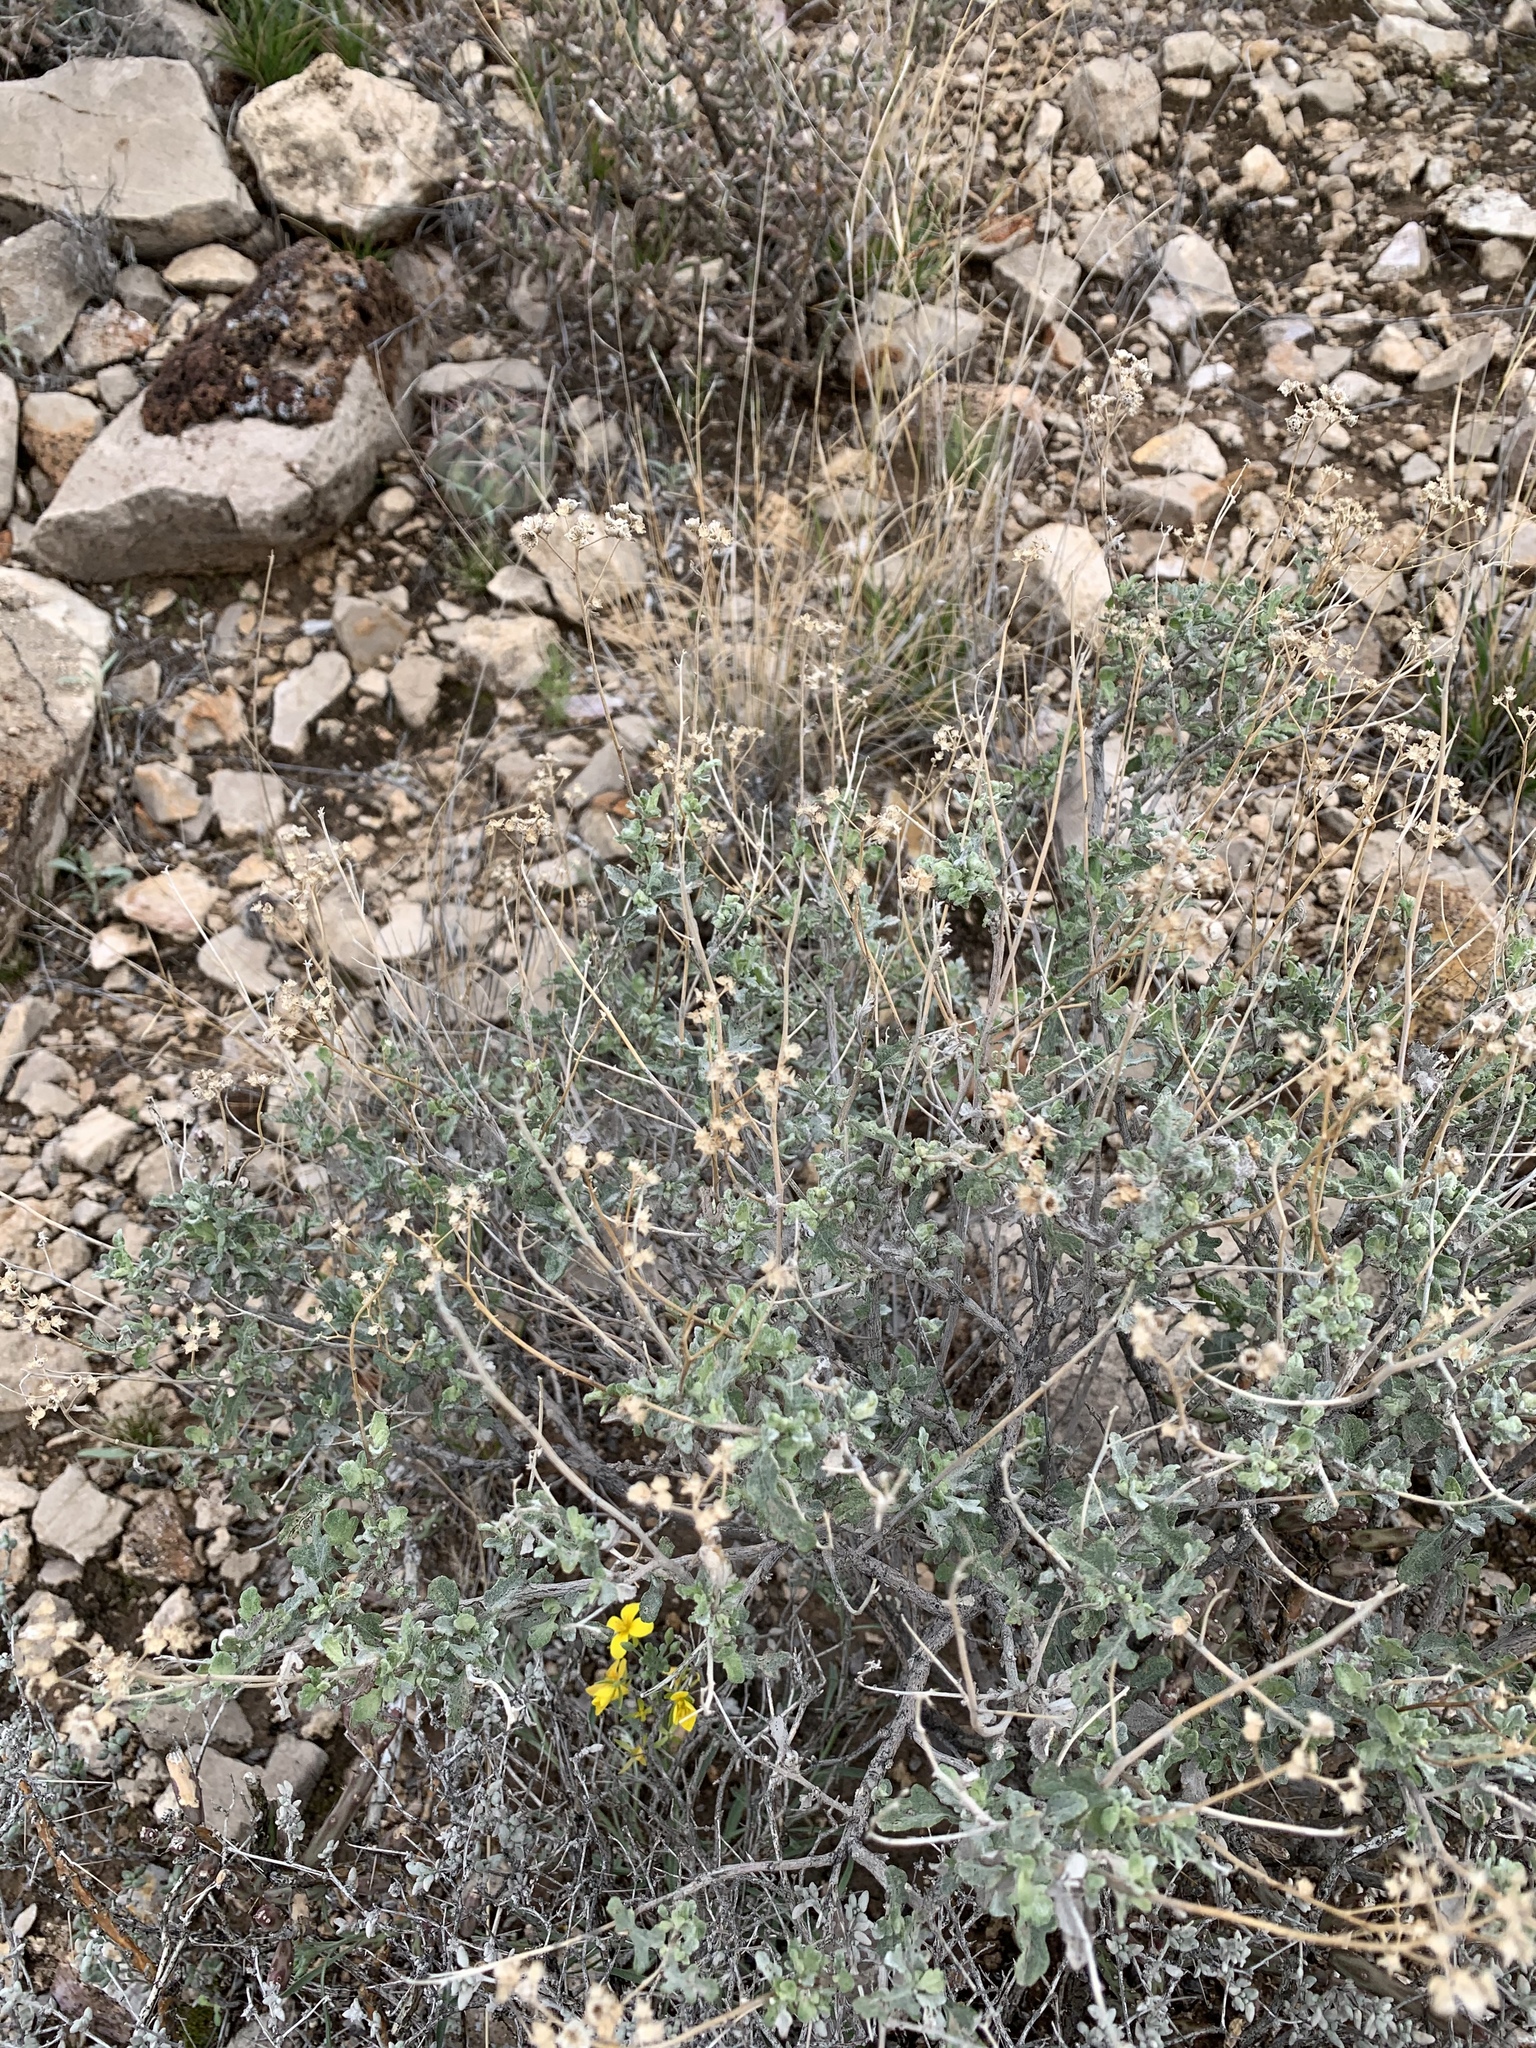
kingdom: Plantae
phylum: Tracheophyta
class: Magnoliopsida
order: Asterales
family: Asteraceae
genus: Parthenium
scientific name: Parthenium incanum
